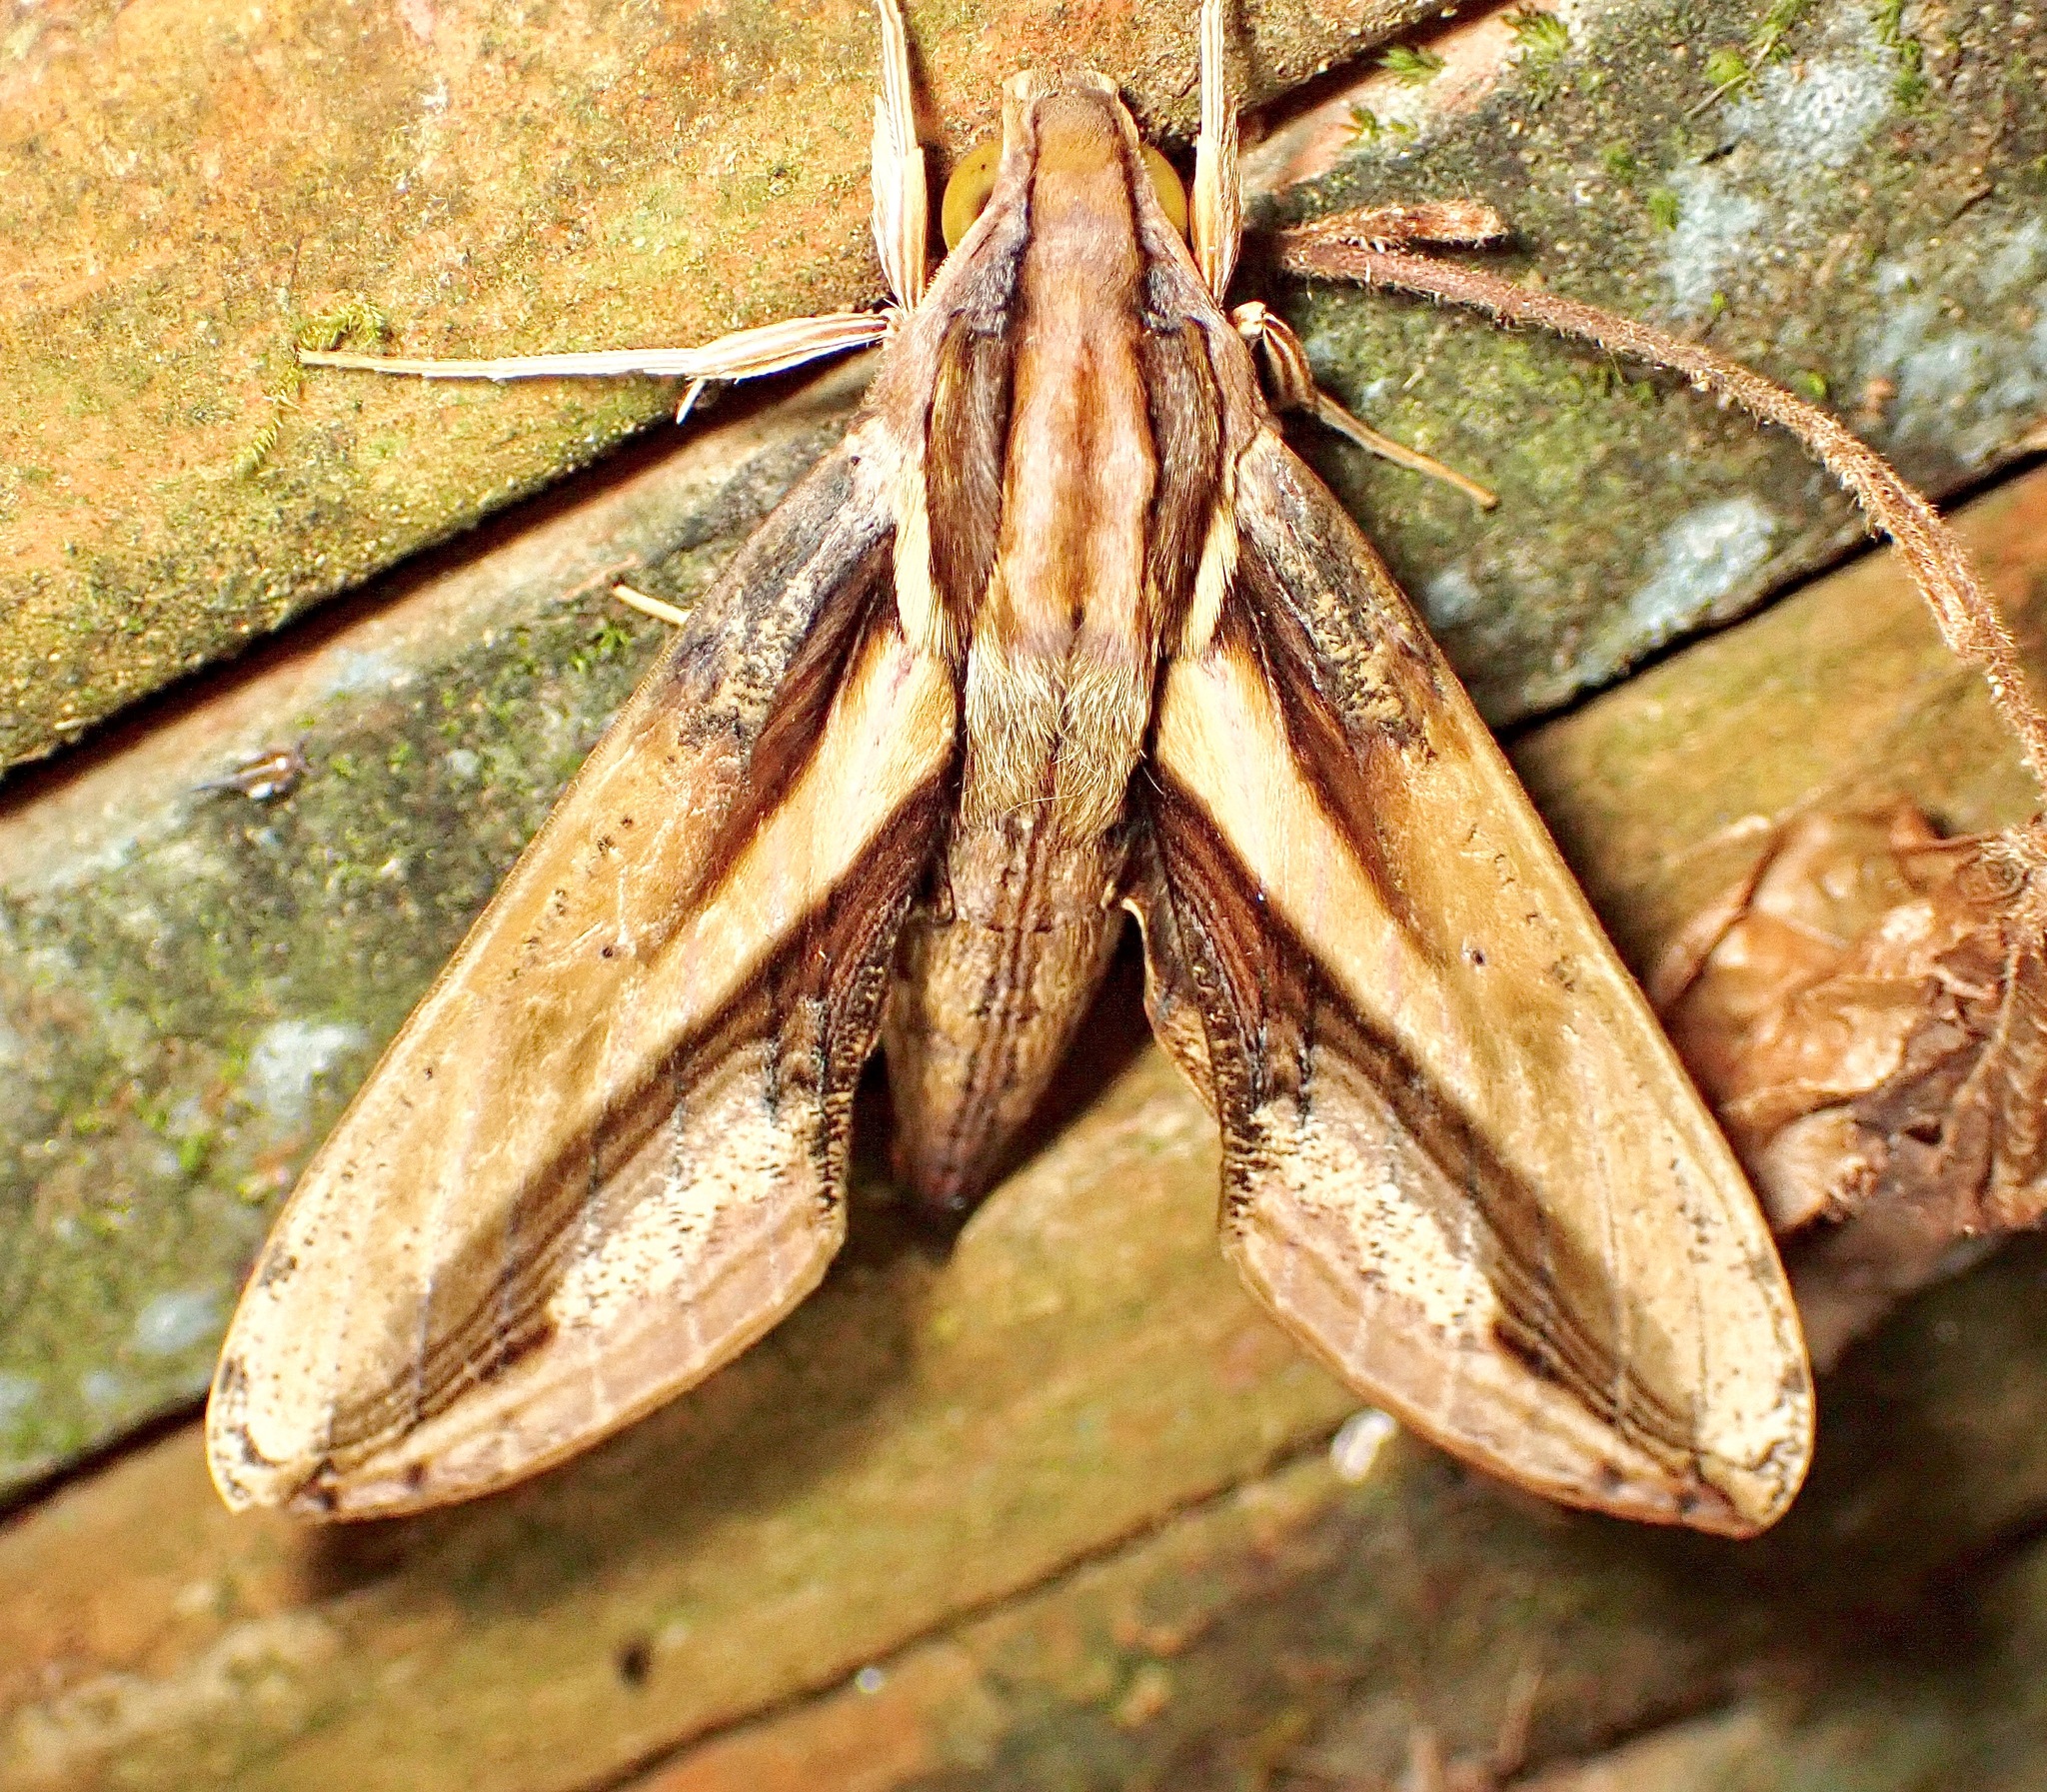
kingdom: Animalia
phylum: Arthropoda
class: Insecta
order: Lepidoptera
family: Sphingidae
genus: Xylophanes
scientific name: Xylophanes xylobotes
